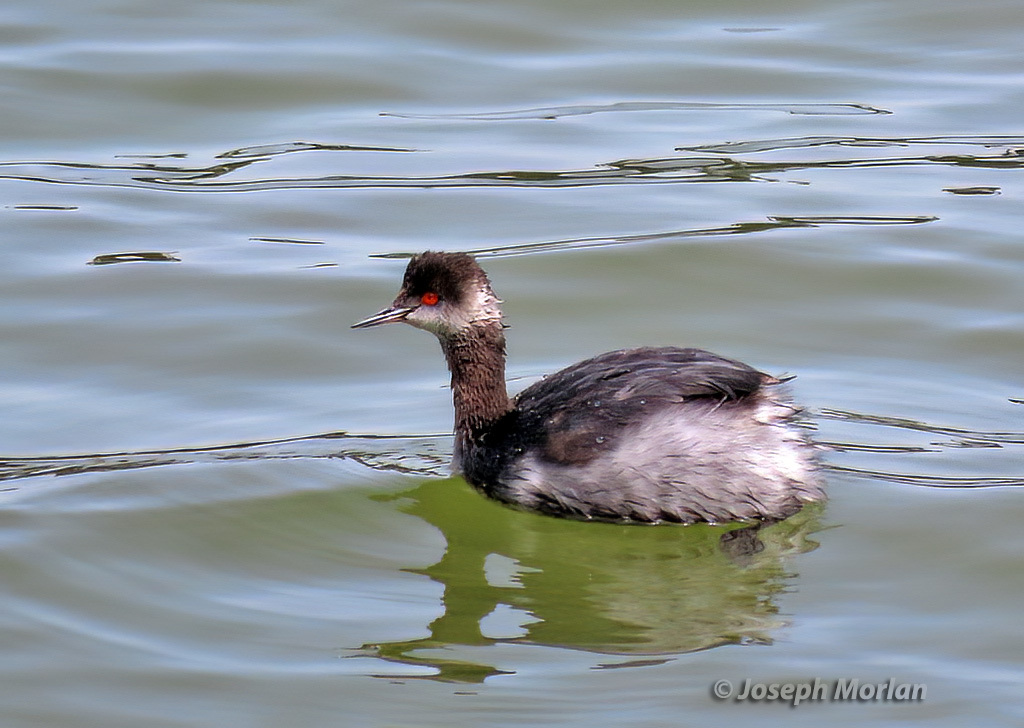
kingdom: Animalia
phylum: Chordata
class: Aves
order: Podicipediformes
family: Podicipedidae
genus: Podiceps
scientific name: Podiceps nigricollis
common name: Black-necked grebe
